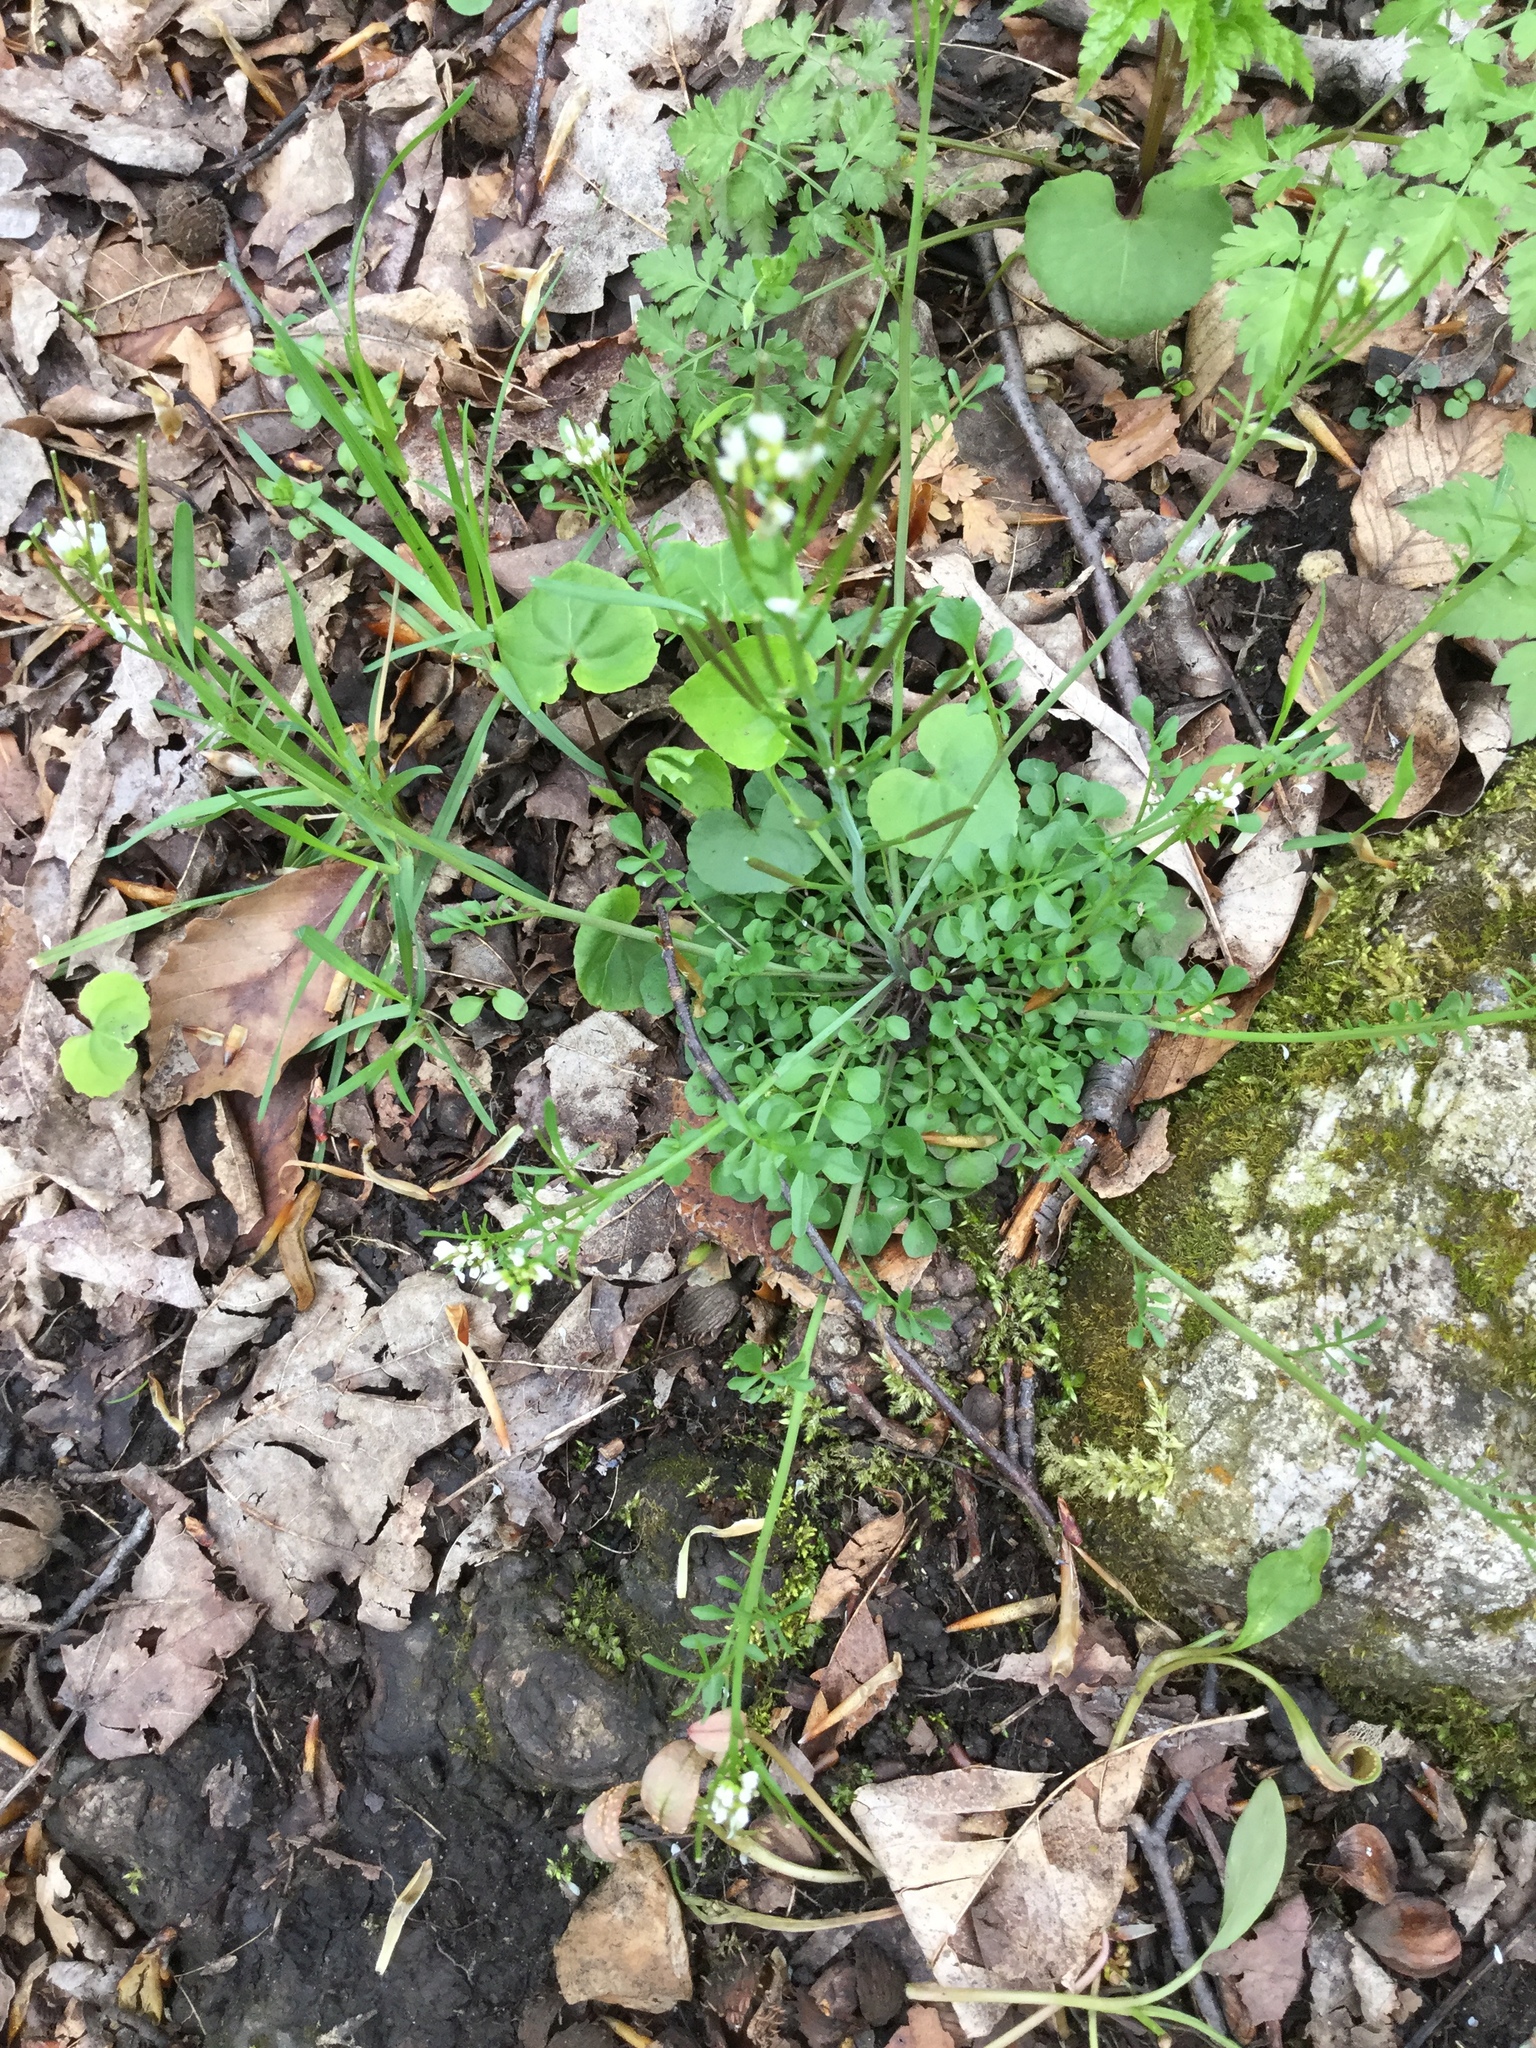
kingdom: Plantae
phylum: Tracheophyta
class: Magnoliopsida
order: Brassicales
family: Brassicaceae
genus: Cardamine
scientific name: Cardamine hirsuta
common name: Hairy bittercress
